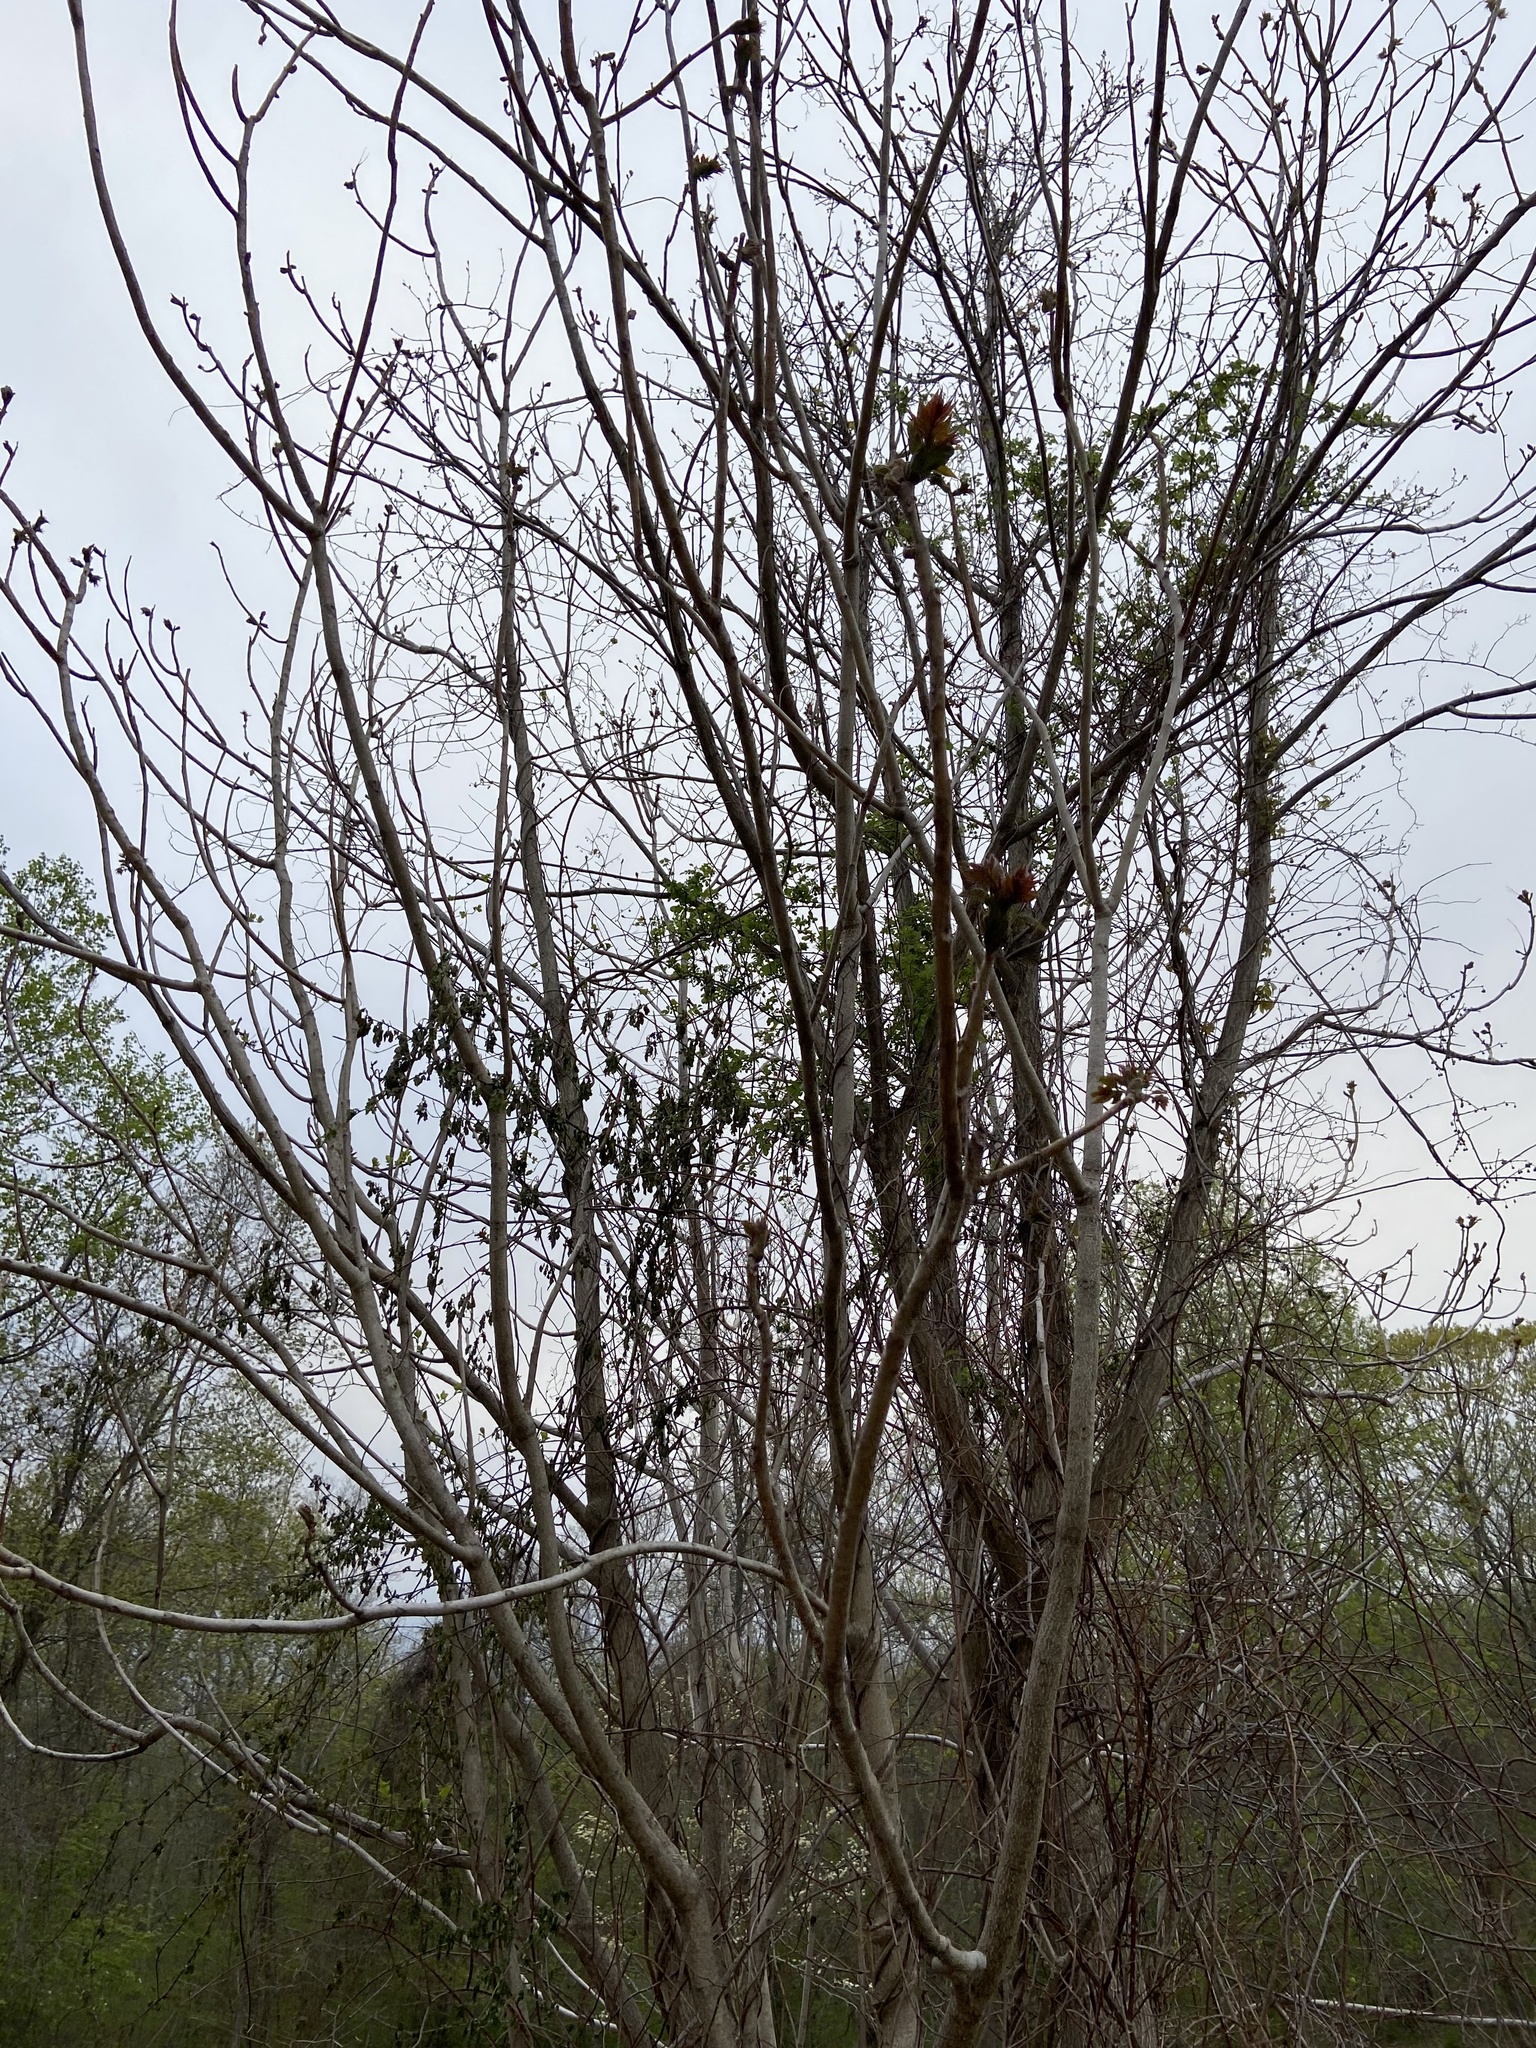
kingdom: Plantae
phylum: Tracheophyta
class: Magnoliopsida
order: Sapindales
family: Simaroubaceae
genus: Ailanthus
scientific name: Ailanthus altissima
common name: Tree-of-heaven
